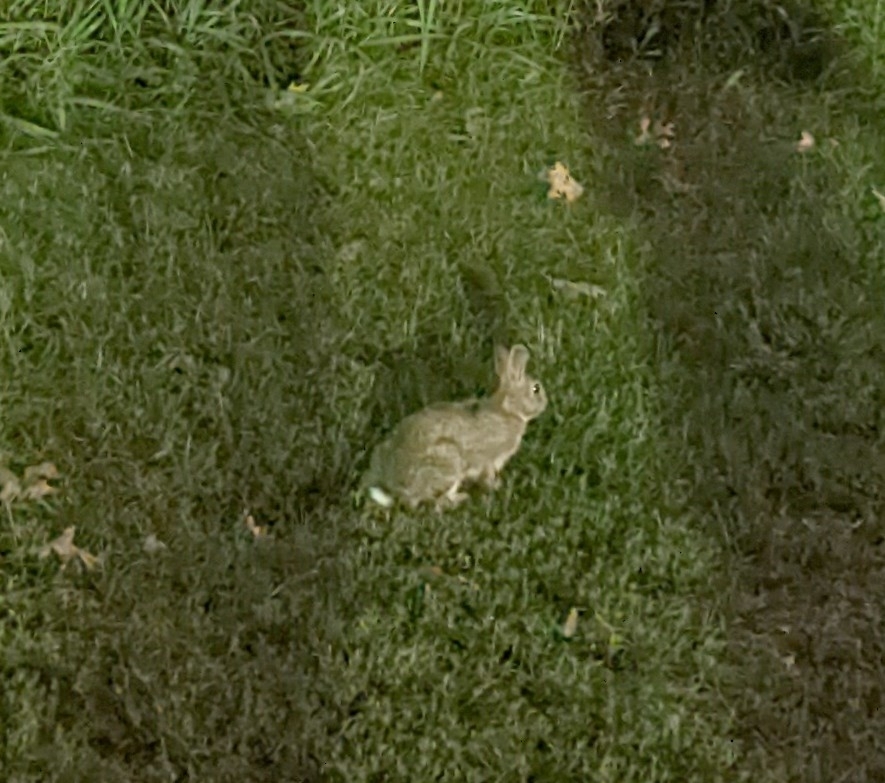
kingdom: Animalia
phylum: Chordata
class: Mammalia
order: Lagomorpha
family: Leporidae
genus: Sylvilagus
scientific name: Sylvilagus floridanus
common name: Eastern cottontail
